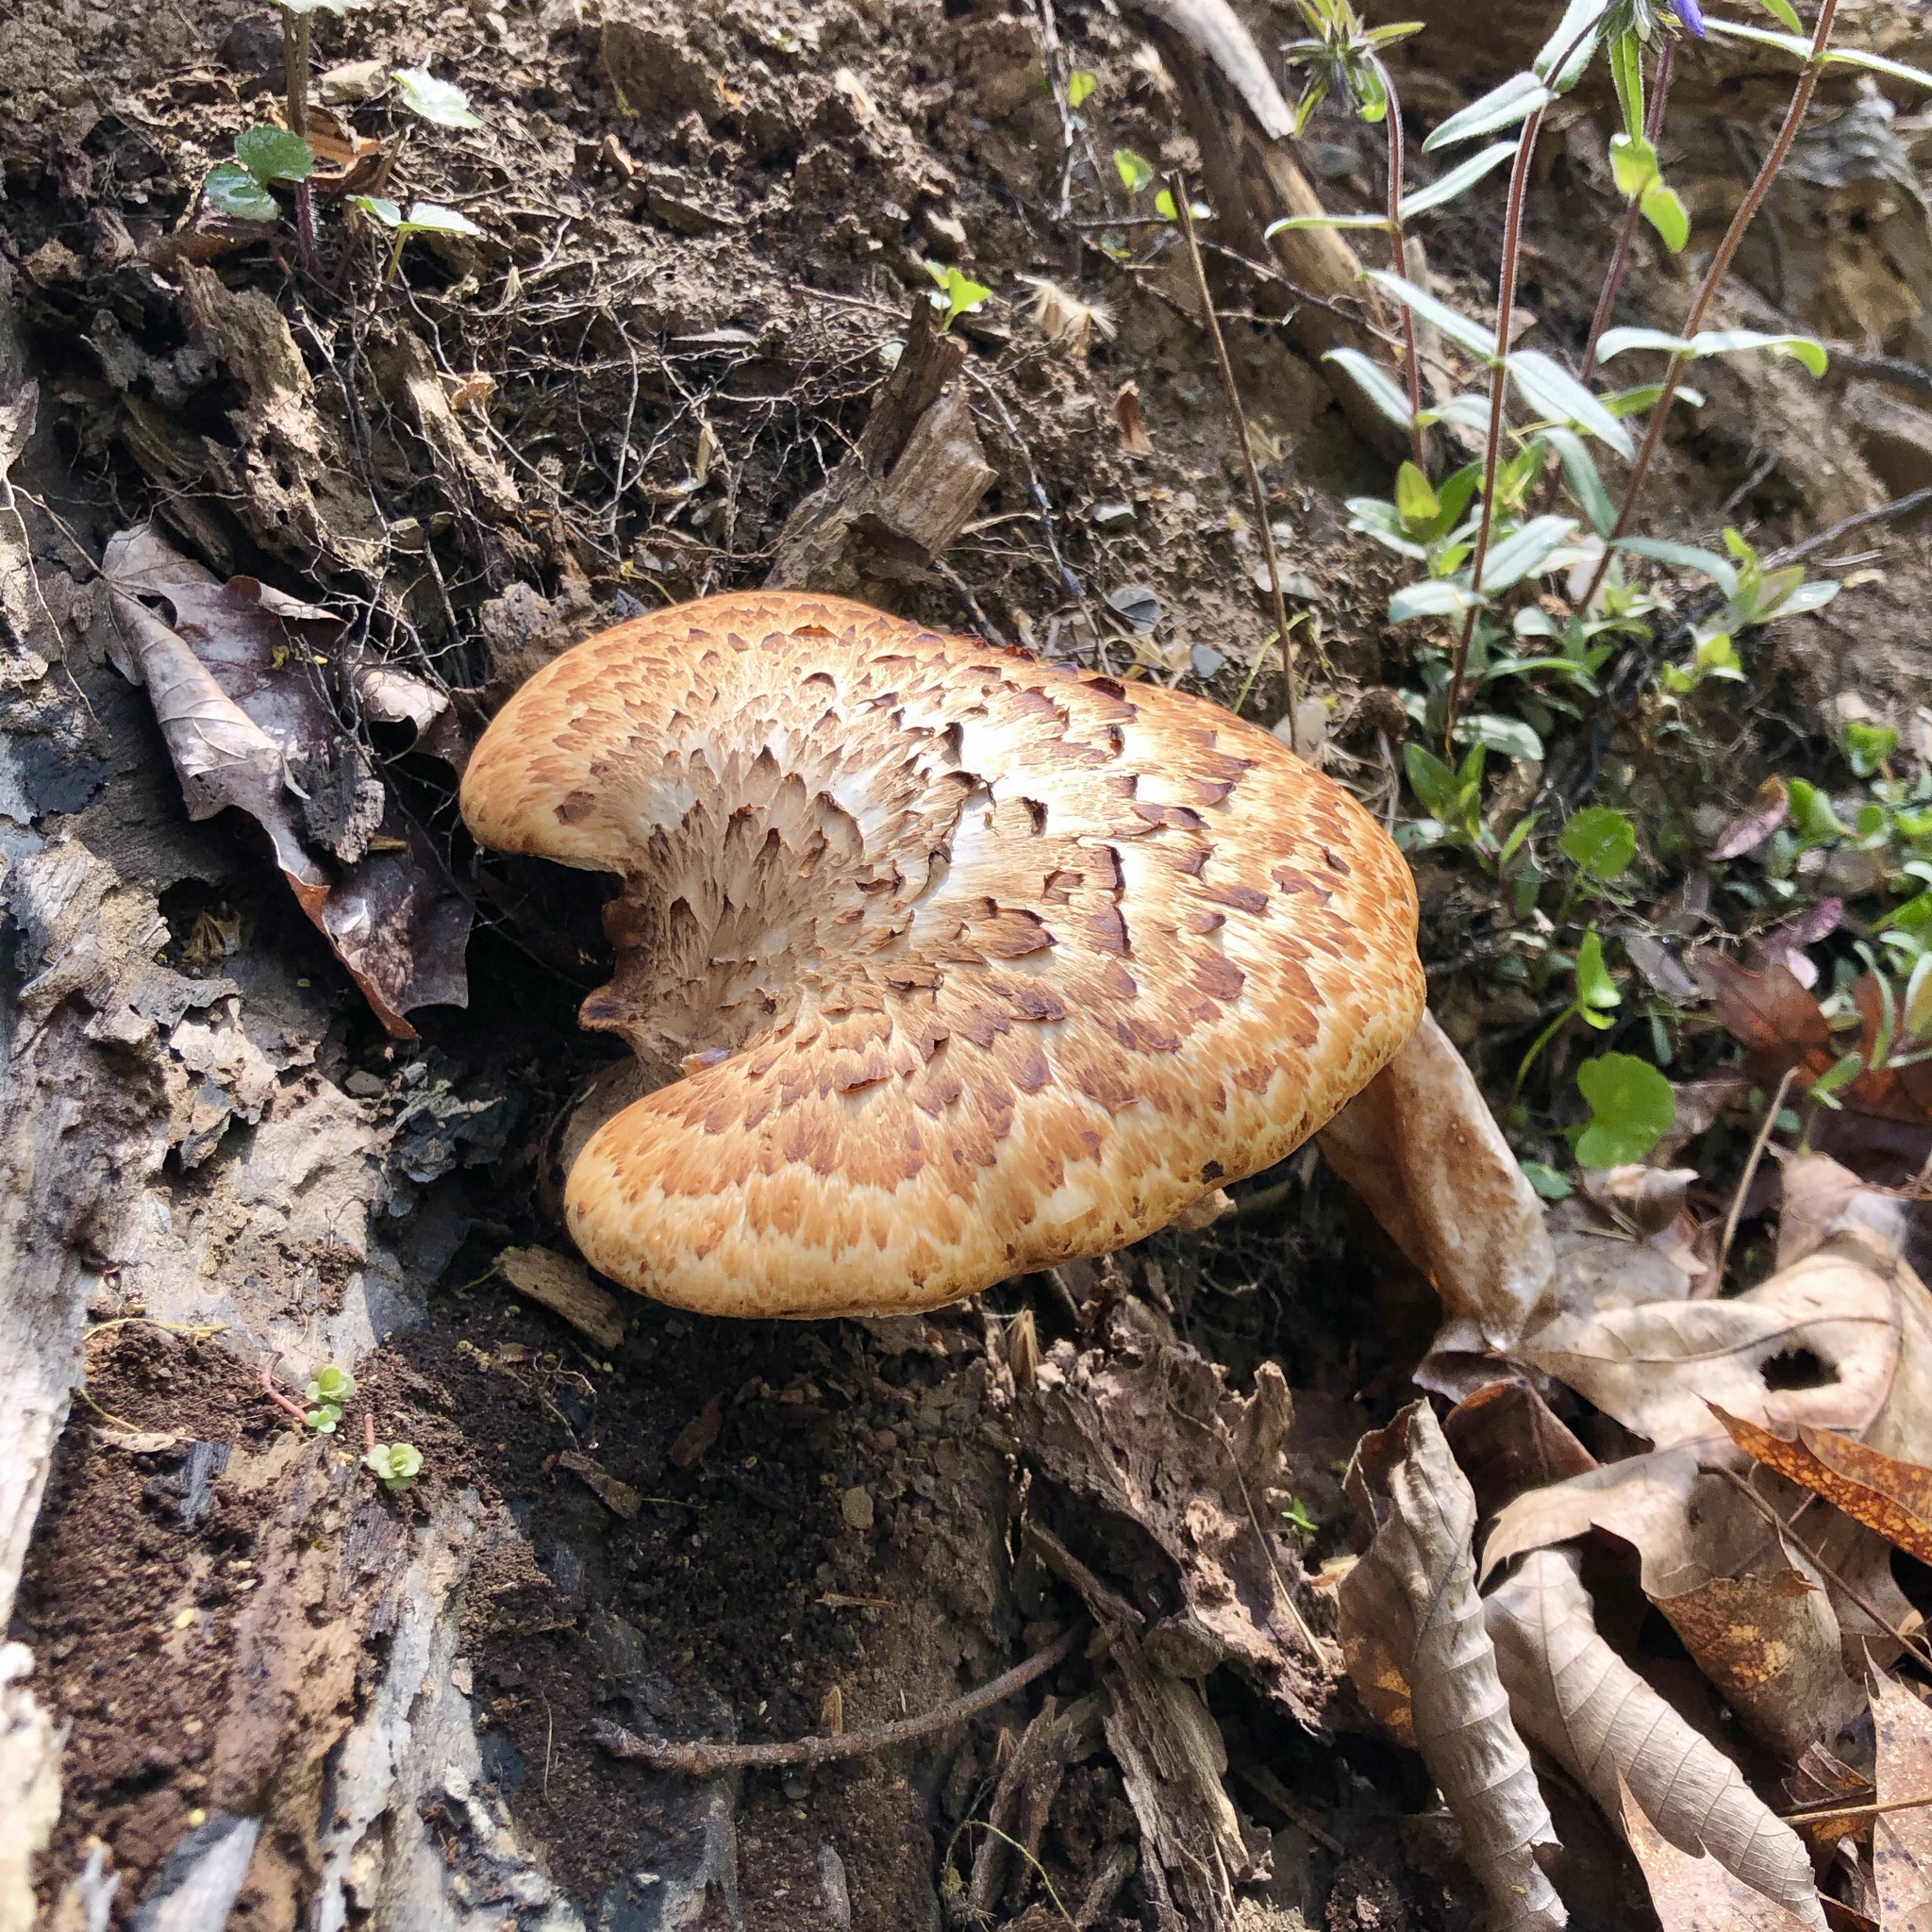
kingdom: Fungi
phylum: Basidiomycota
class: Agaricomycetes
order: Polyporales
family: Polyporaceae
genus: Cerioporus
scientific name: Cerioporus squamosus
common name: Dryad's saddle
